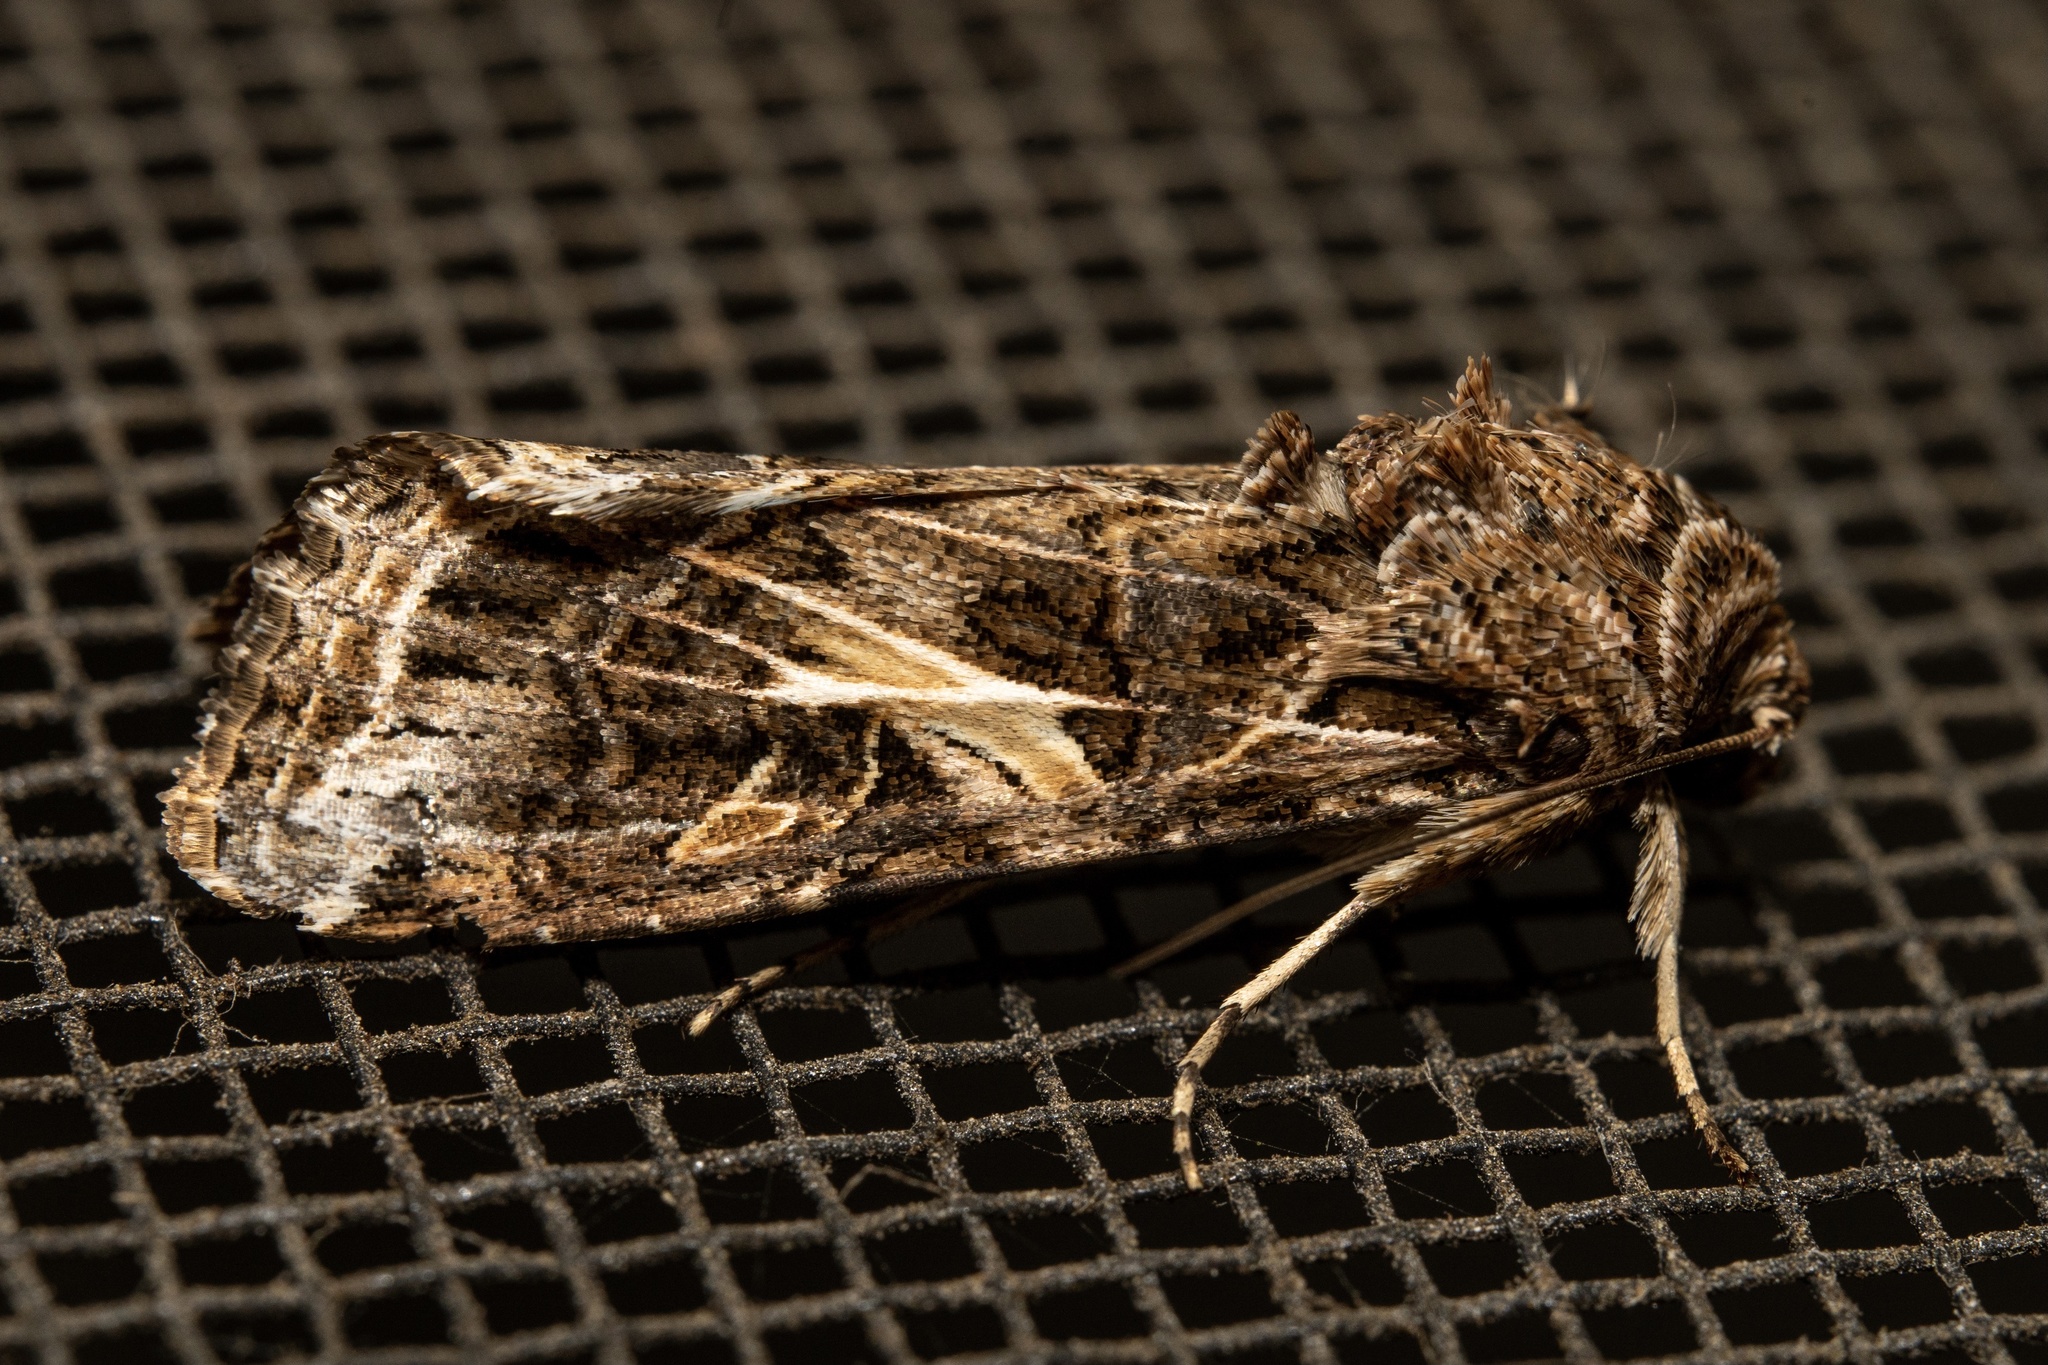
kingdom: Animalia
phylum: Arthropoda
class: Insecta
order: Lepidoptera
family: Noctuidae
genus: Spodoptera
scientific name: Spodoptera ornithogalli
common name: Yellow-striped armyworm
